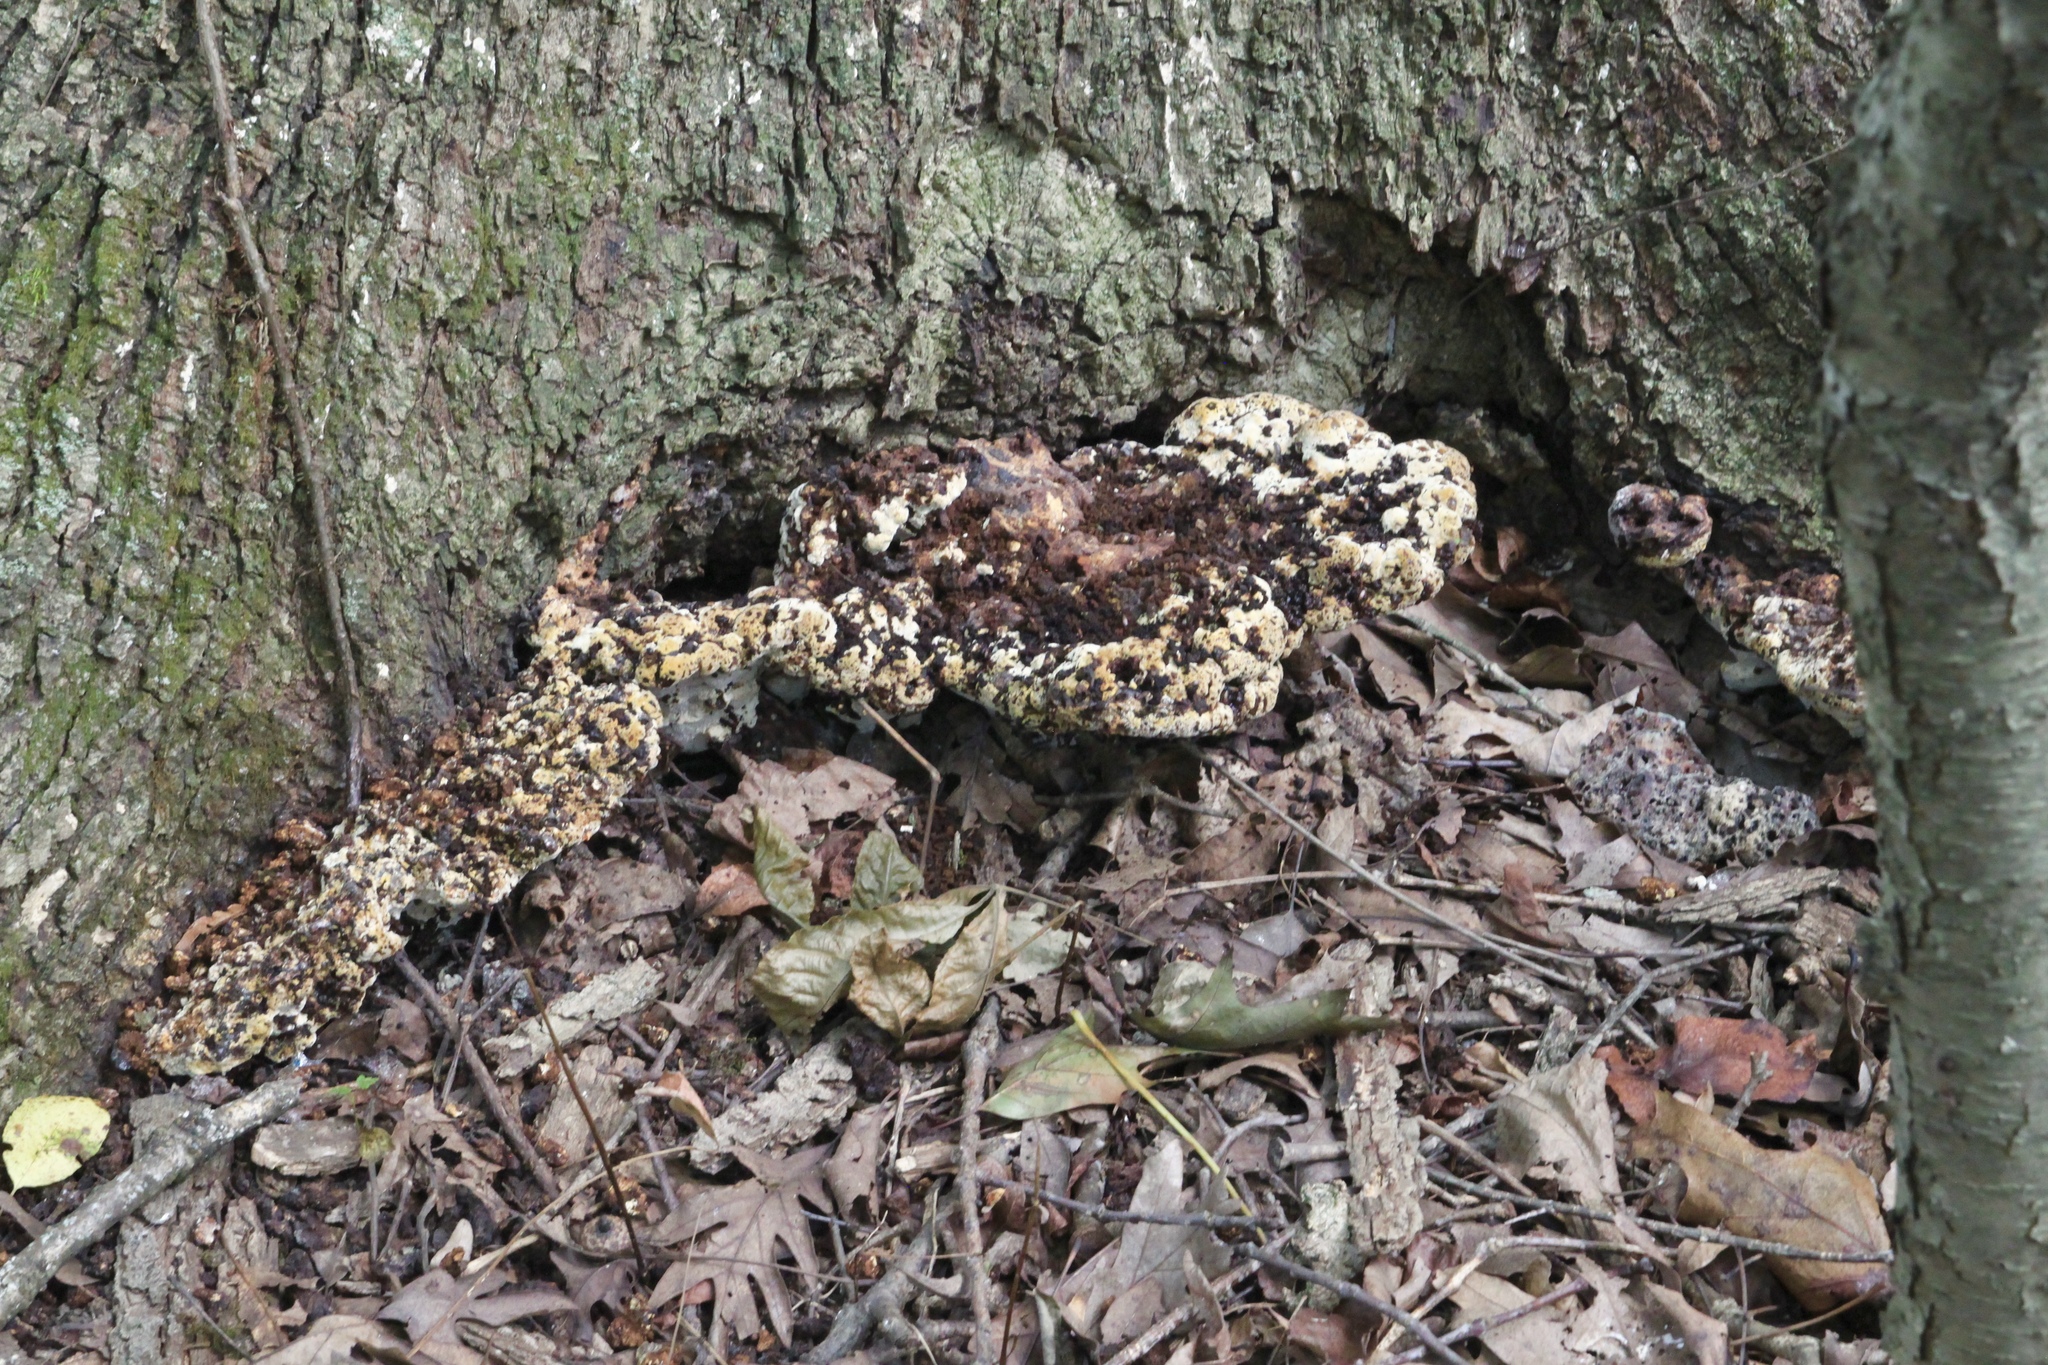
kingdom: Fungi
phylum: Basidiomycota
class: Agaricomycetes
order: Hymenochaetales
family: Hymenochaetaceae
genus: Pseudoinonotus
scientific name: Pseudoinonotus dryadeus
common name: Oak bracket
